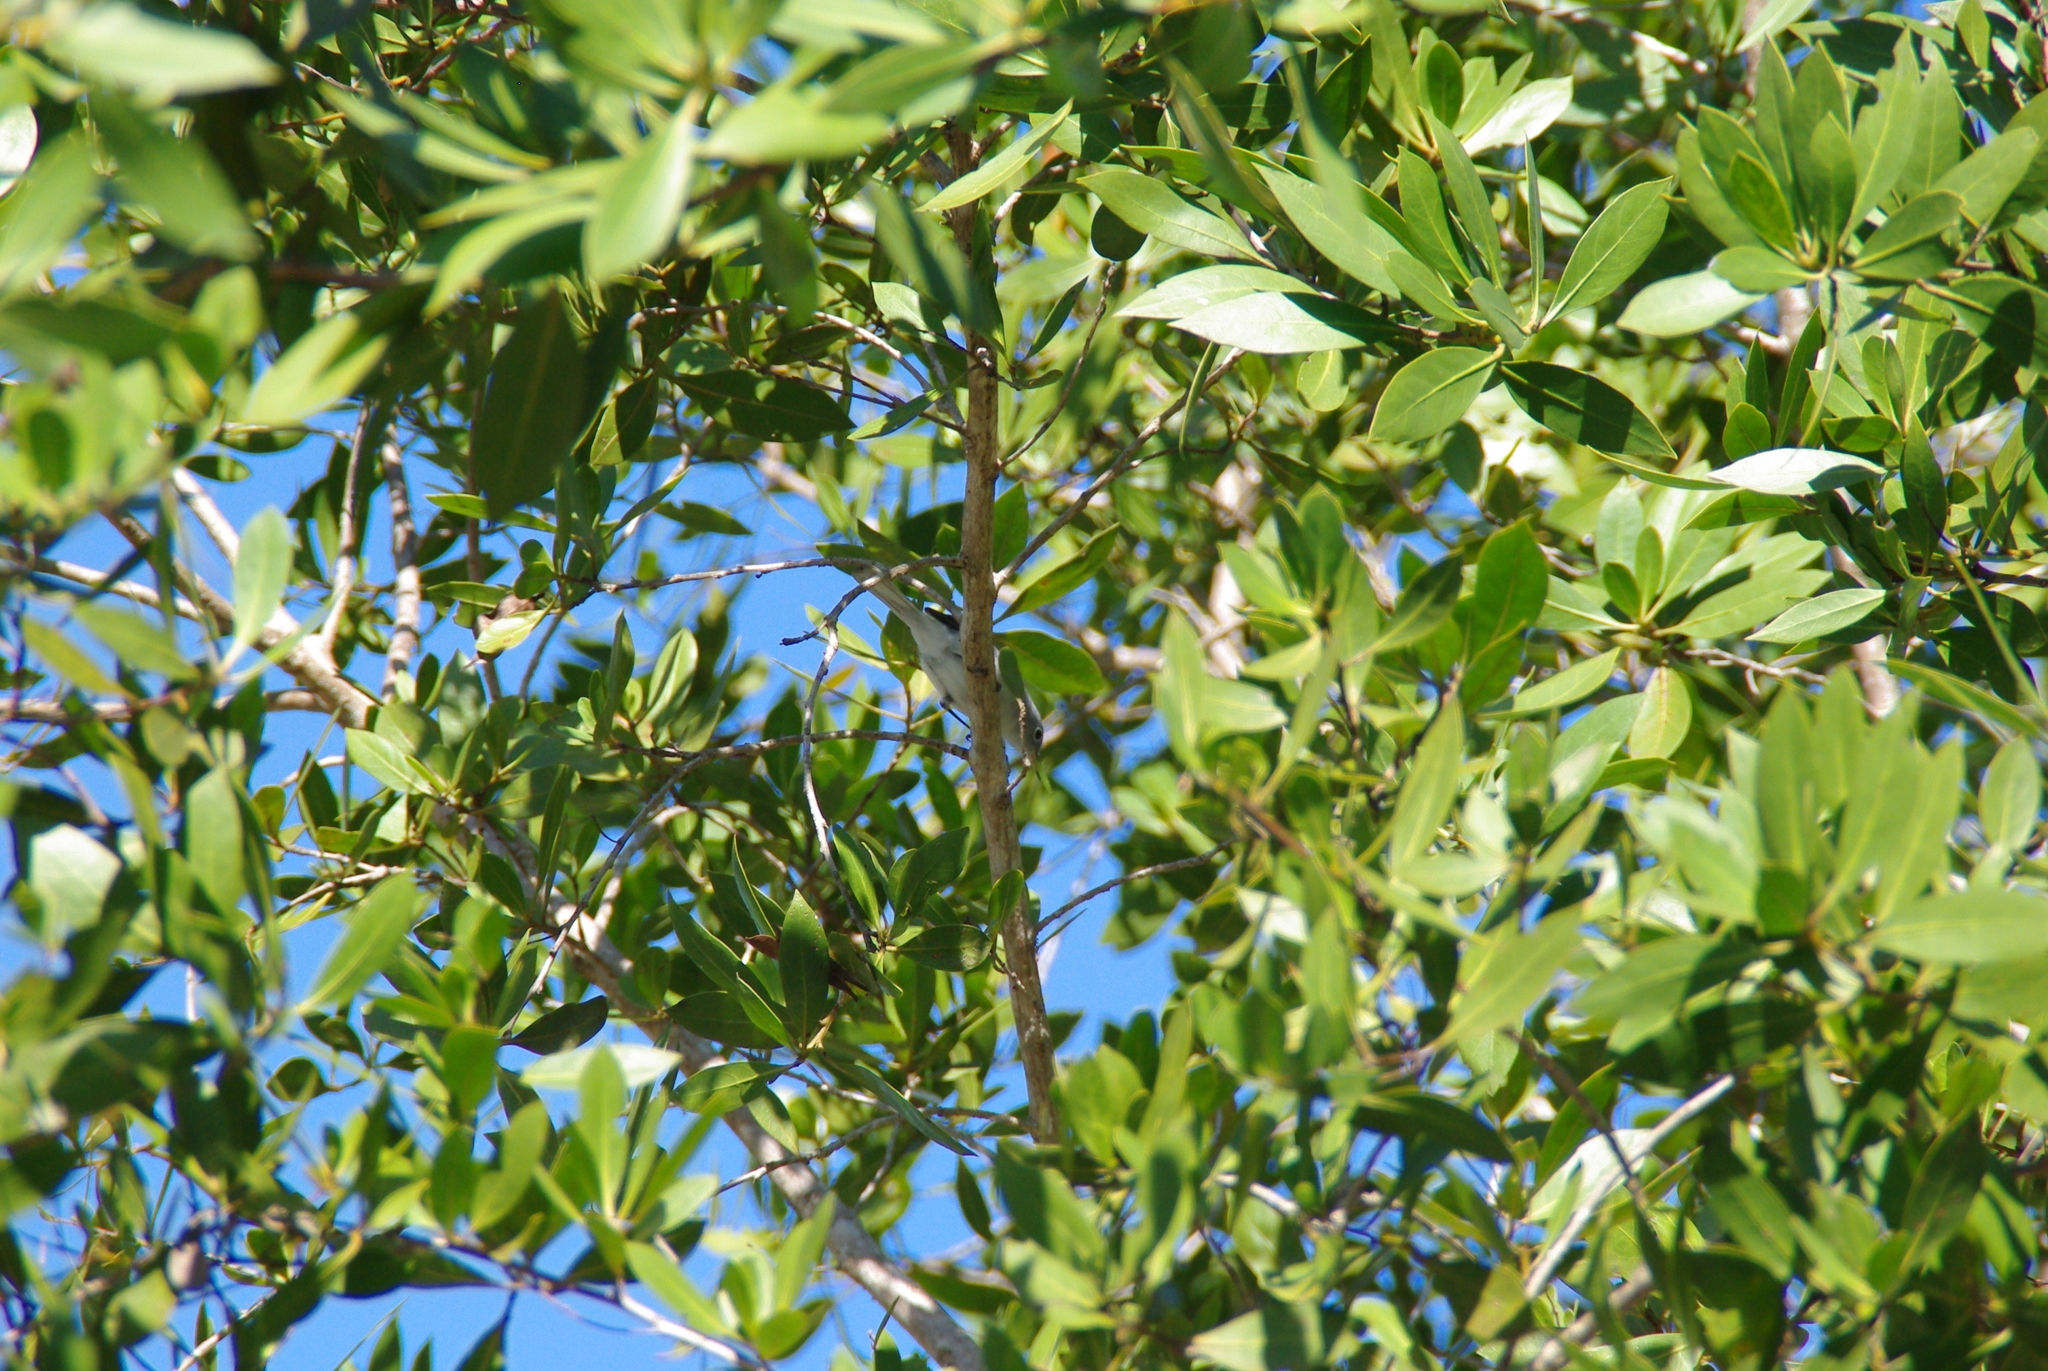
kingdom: Animalia
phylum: Chordata
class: Aves
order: Passeriformes
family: Polioptilidae
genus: Polioptila
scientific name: Polioptila caerulea
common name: Blue-gray gnatcatcher
